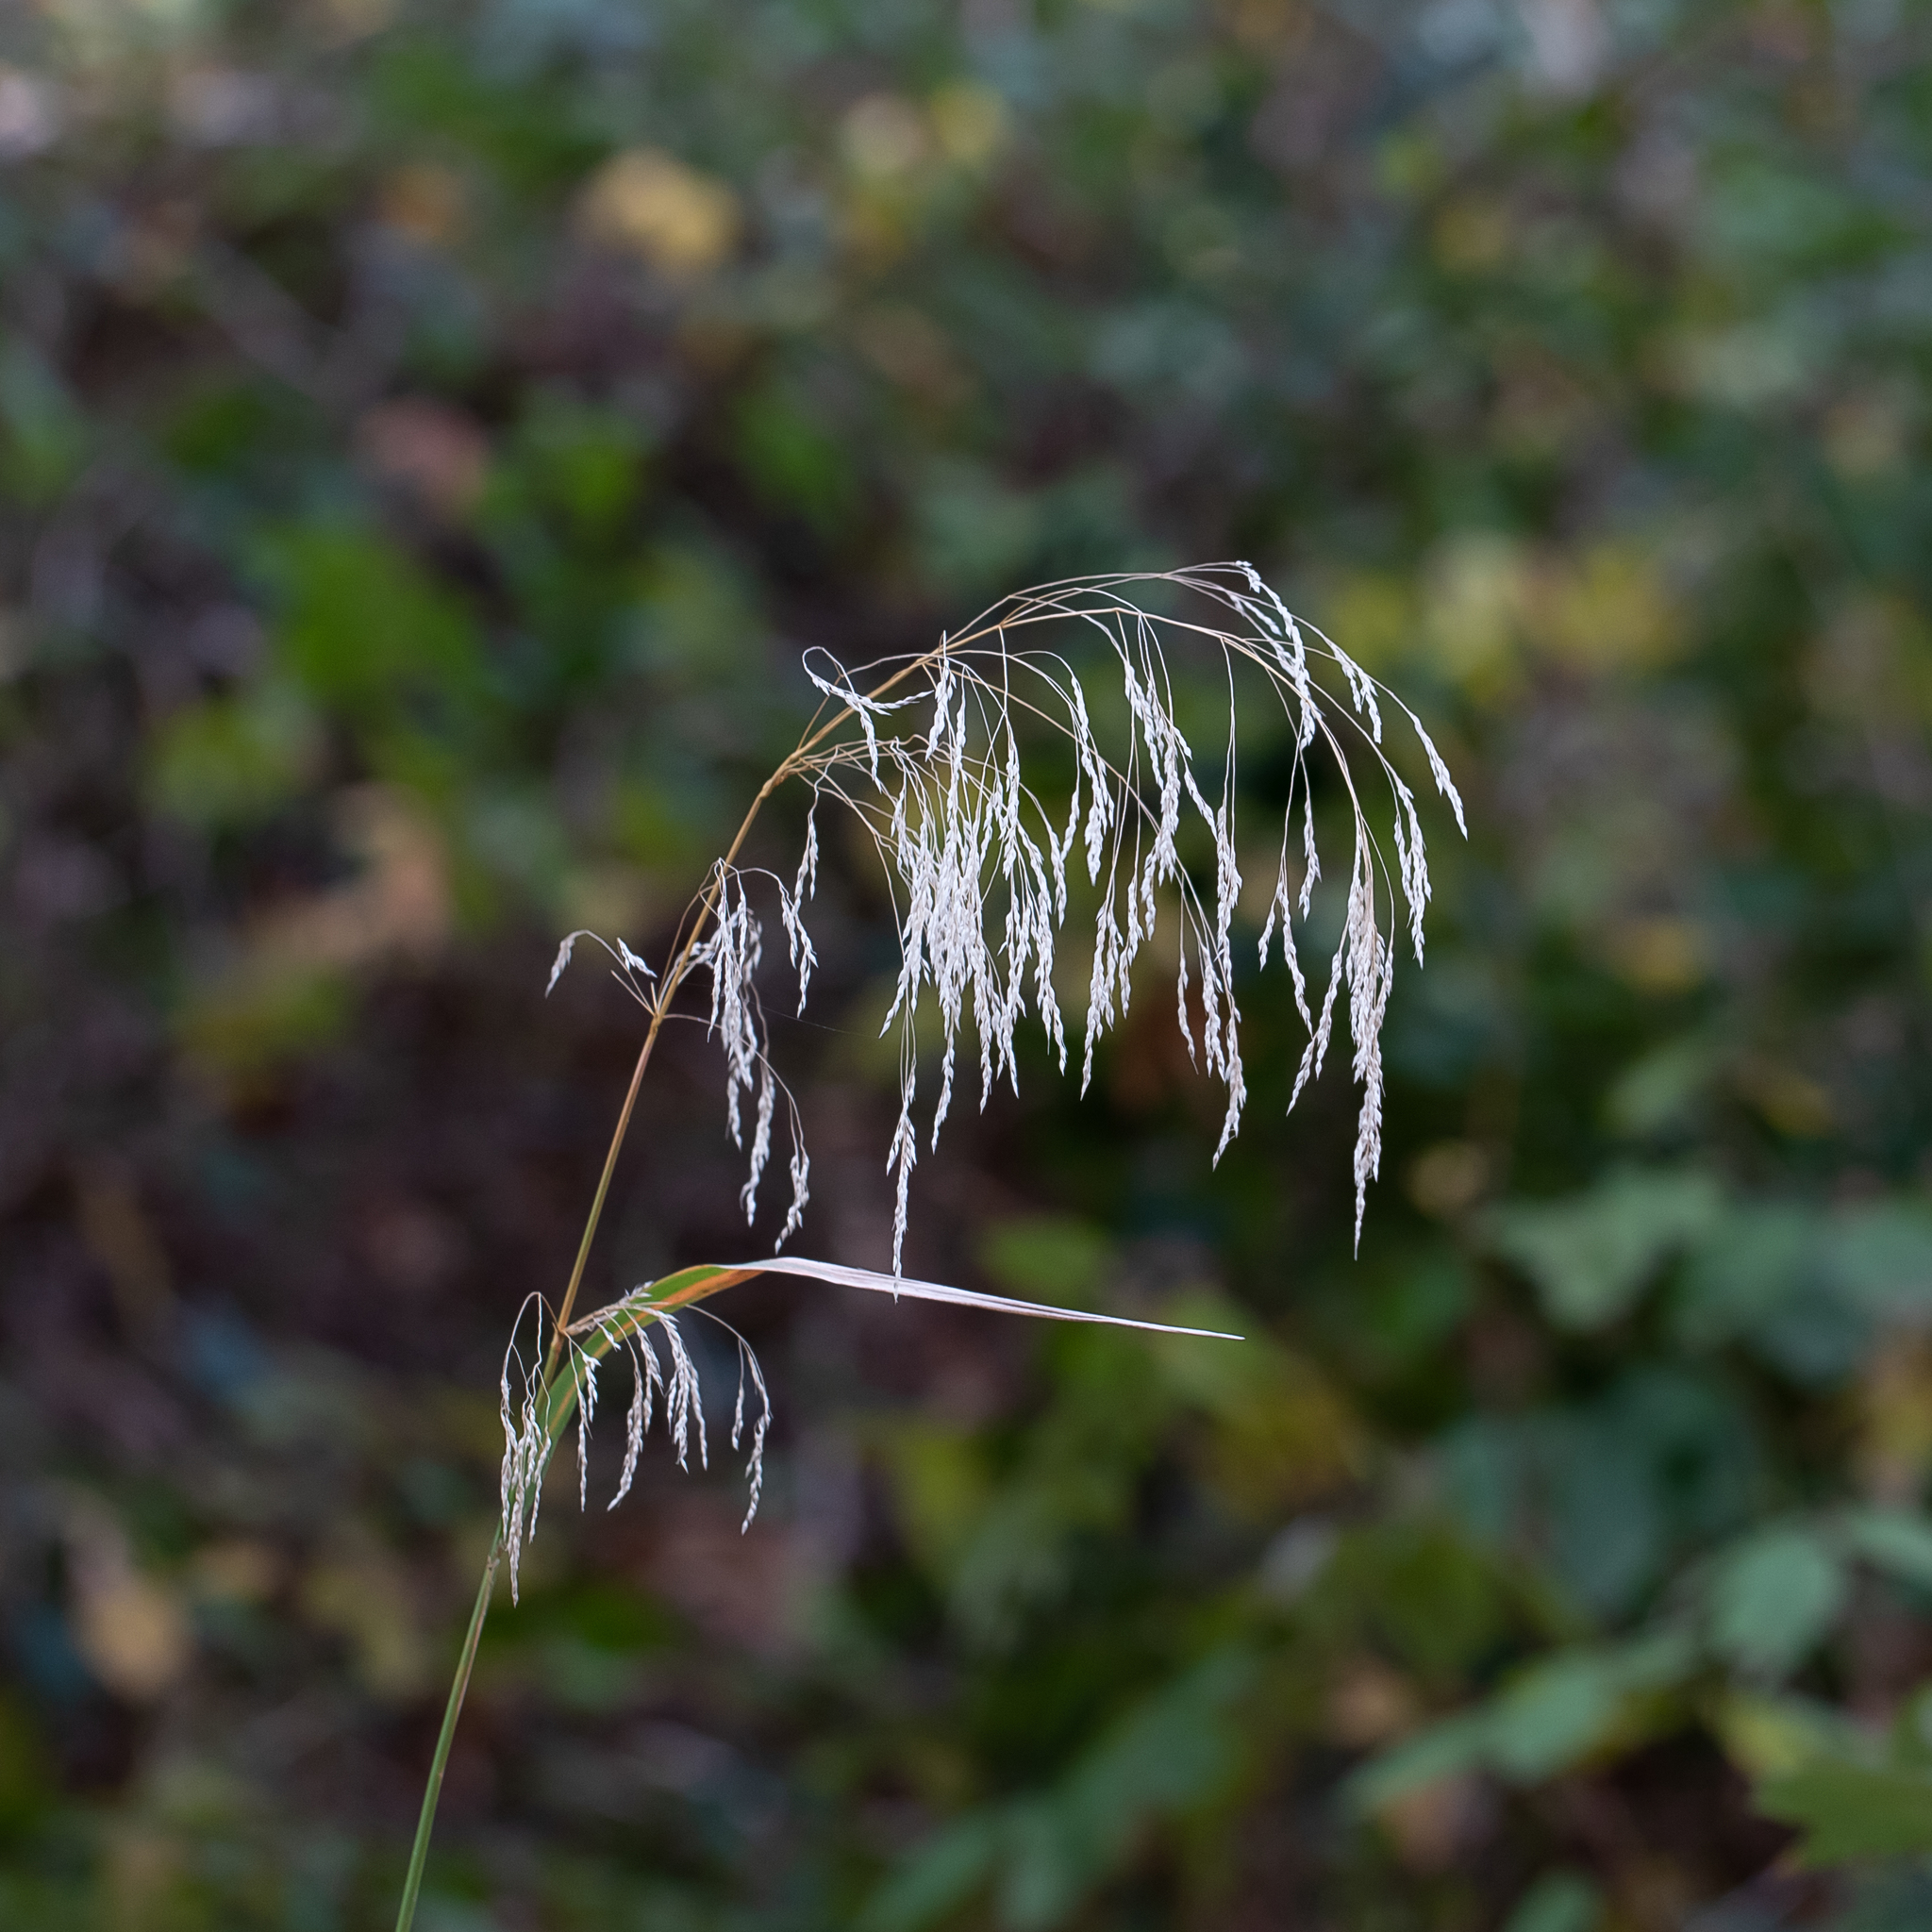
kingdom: Plantae
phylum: Tracheophyta
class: Liliopsida
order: Poales
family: Poaceae
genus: Oloptum
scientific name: Oloptum miliaceum
